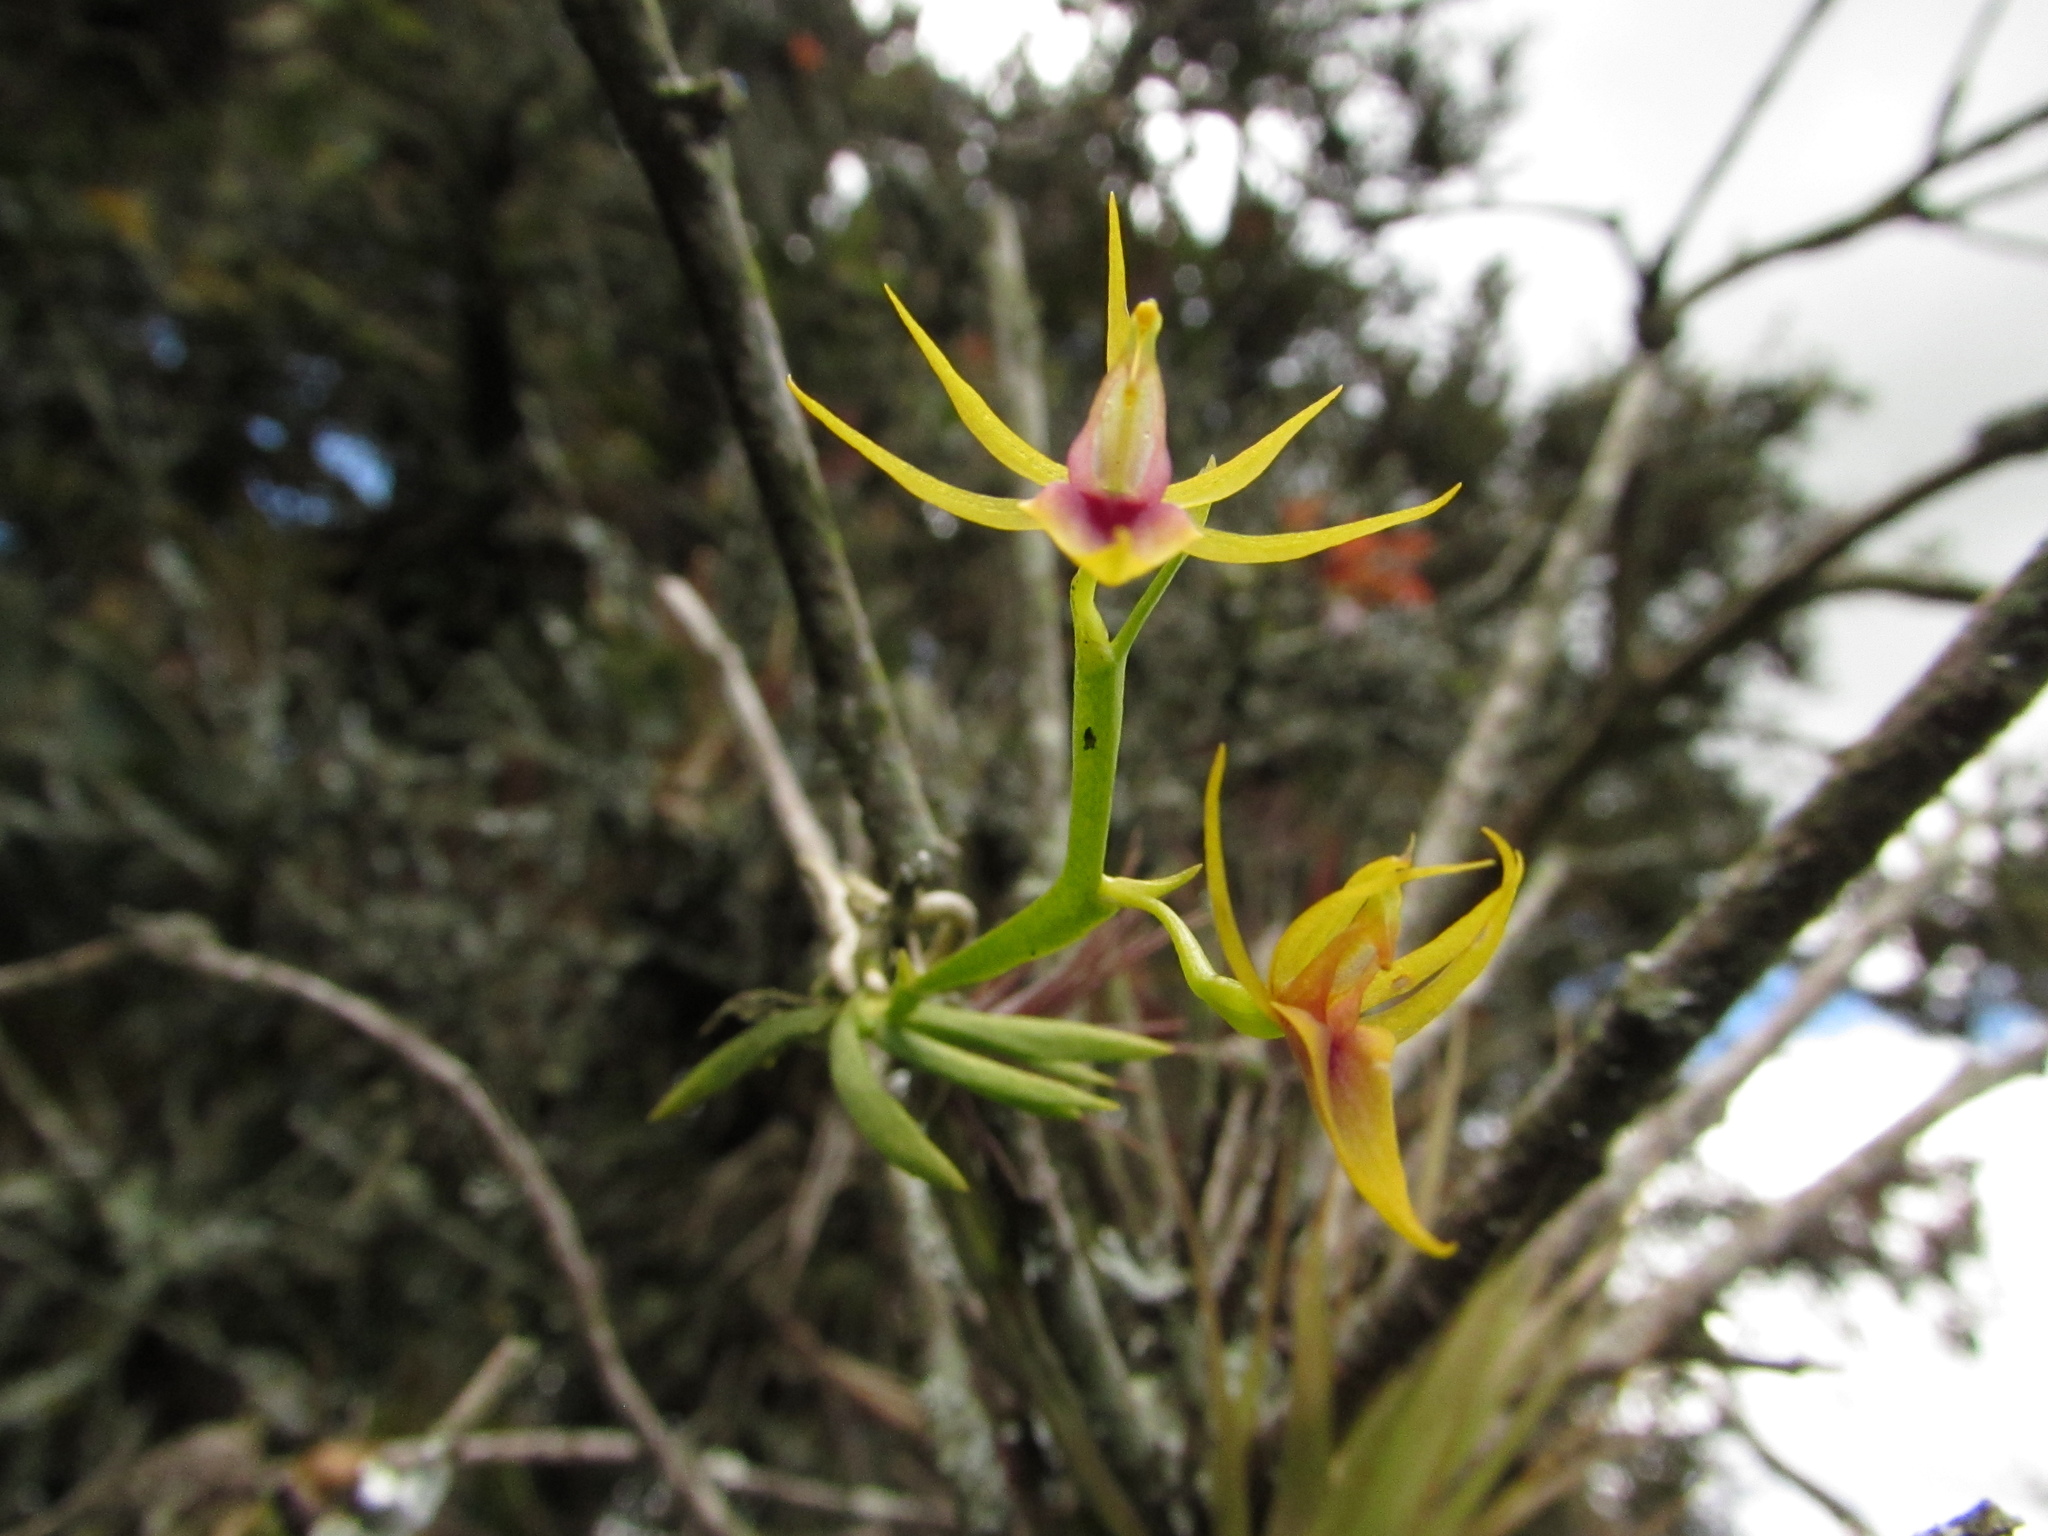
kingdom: Plantae
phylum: Tracheophyta
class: Liliopsida
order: Asparagales
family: Orchidaceae
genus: Hofmeisterella
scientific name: Hofmeisterella eumicroscopica
